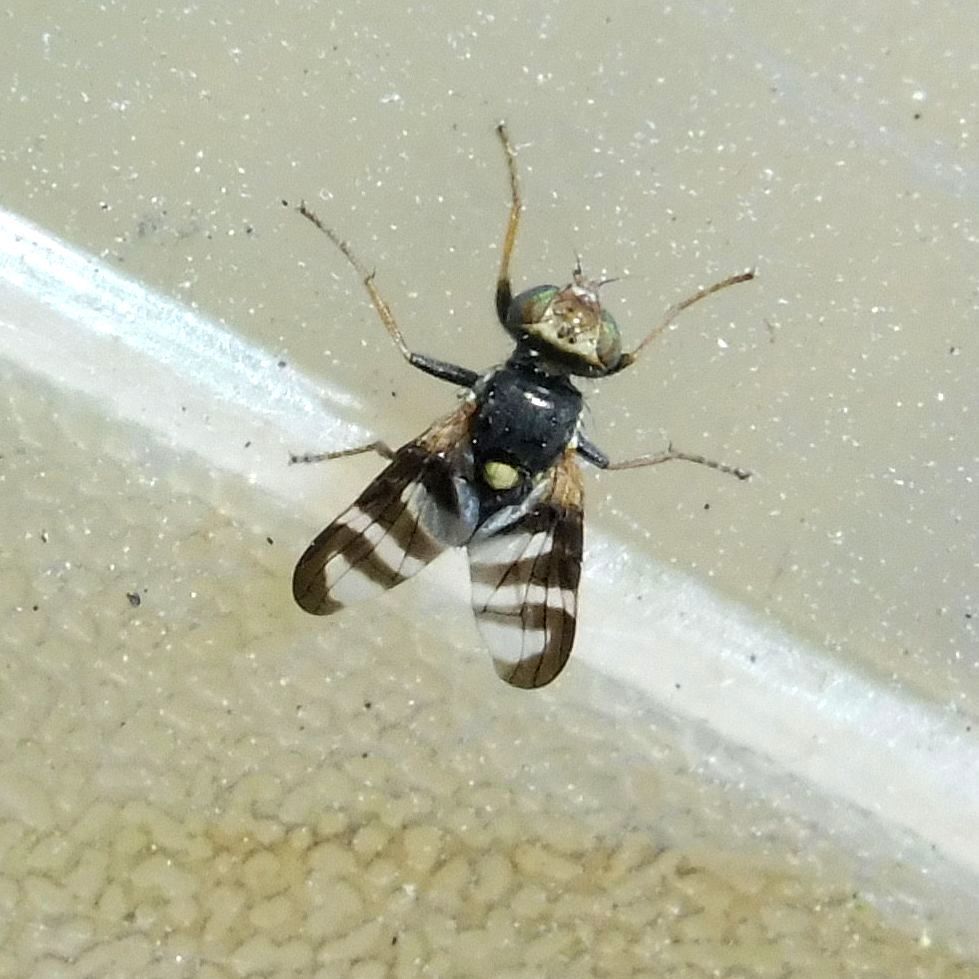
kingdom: Animalia
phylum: Arthropoda
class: Insecta
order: Diptera
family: Tephritidae
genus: Urophora
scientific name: Urophora quadrifasciata
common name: Knapweed seedhead fly
